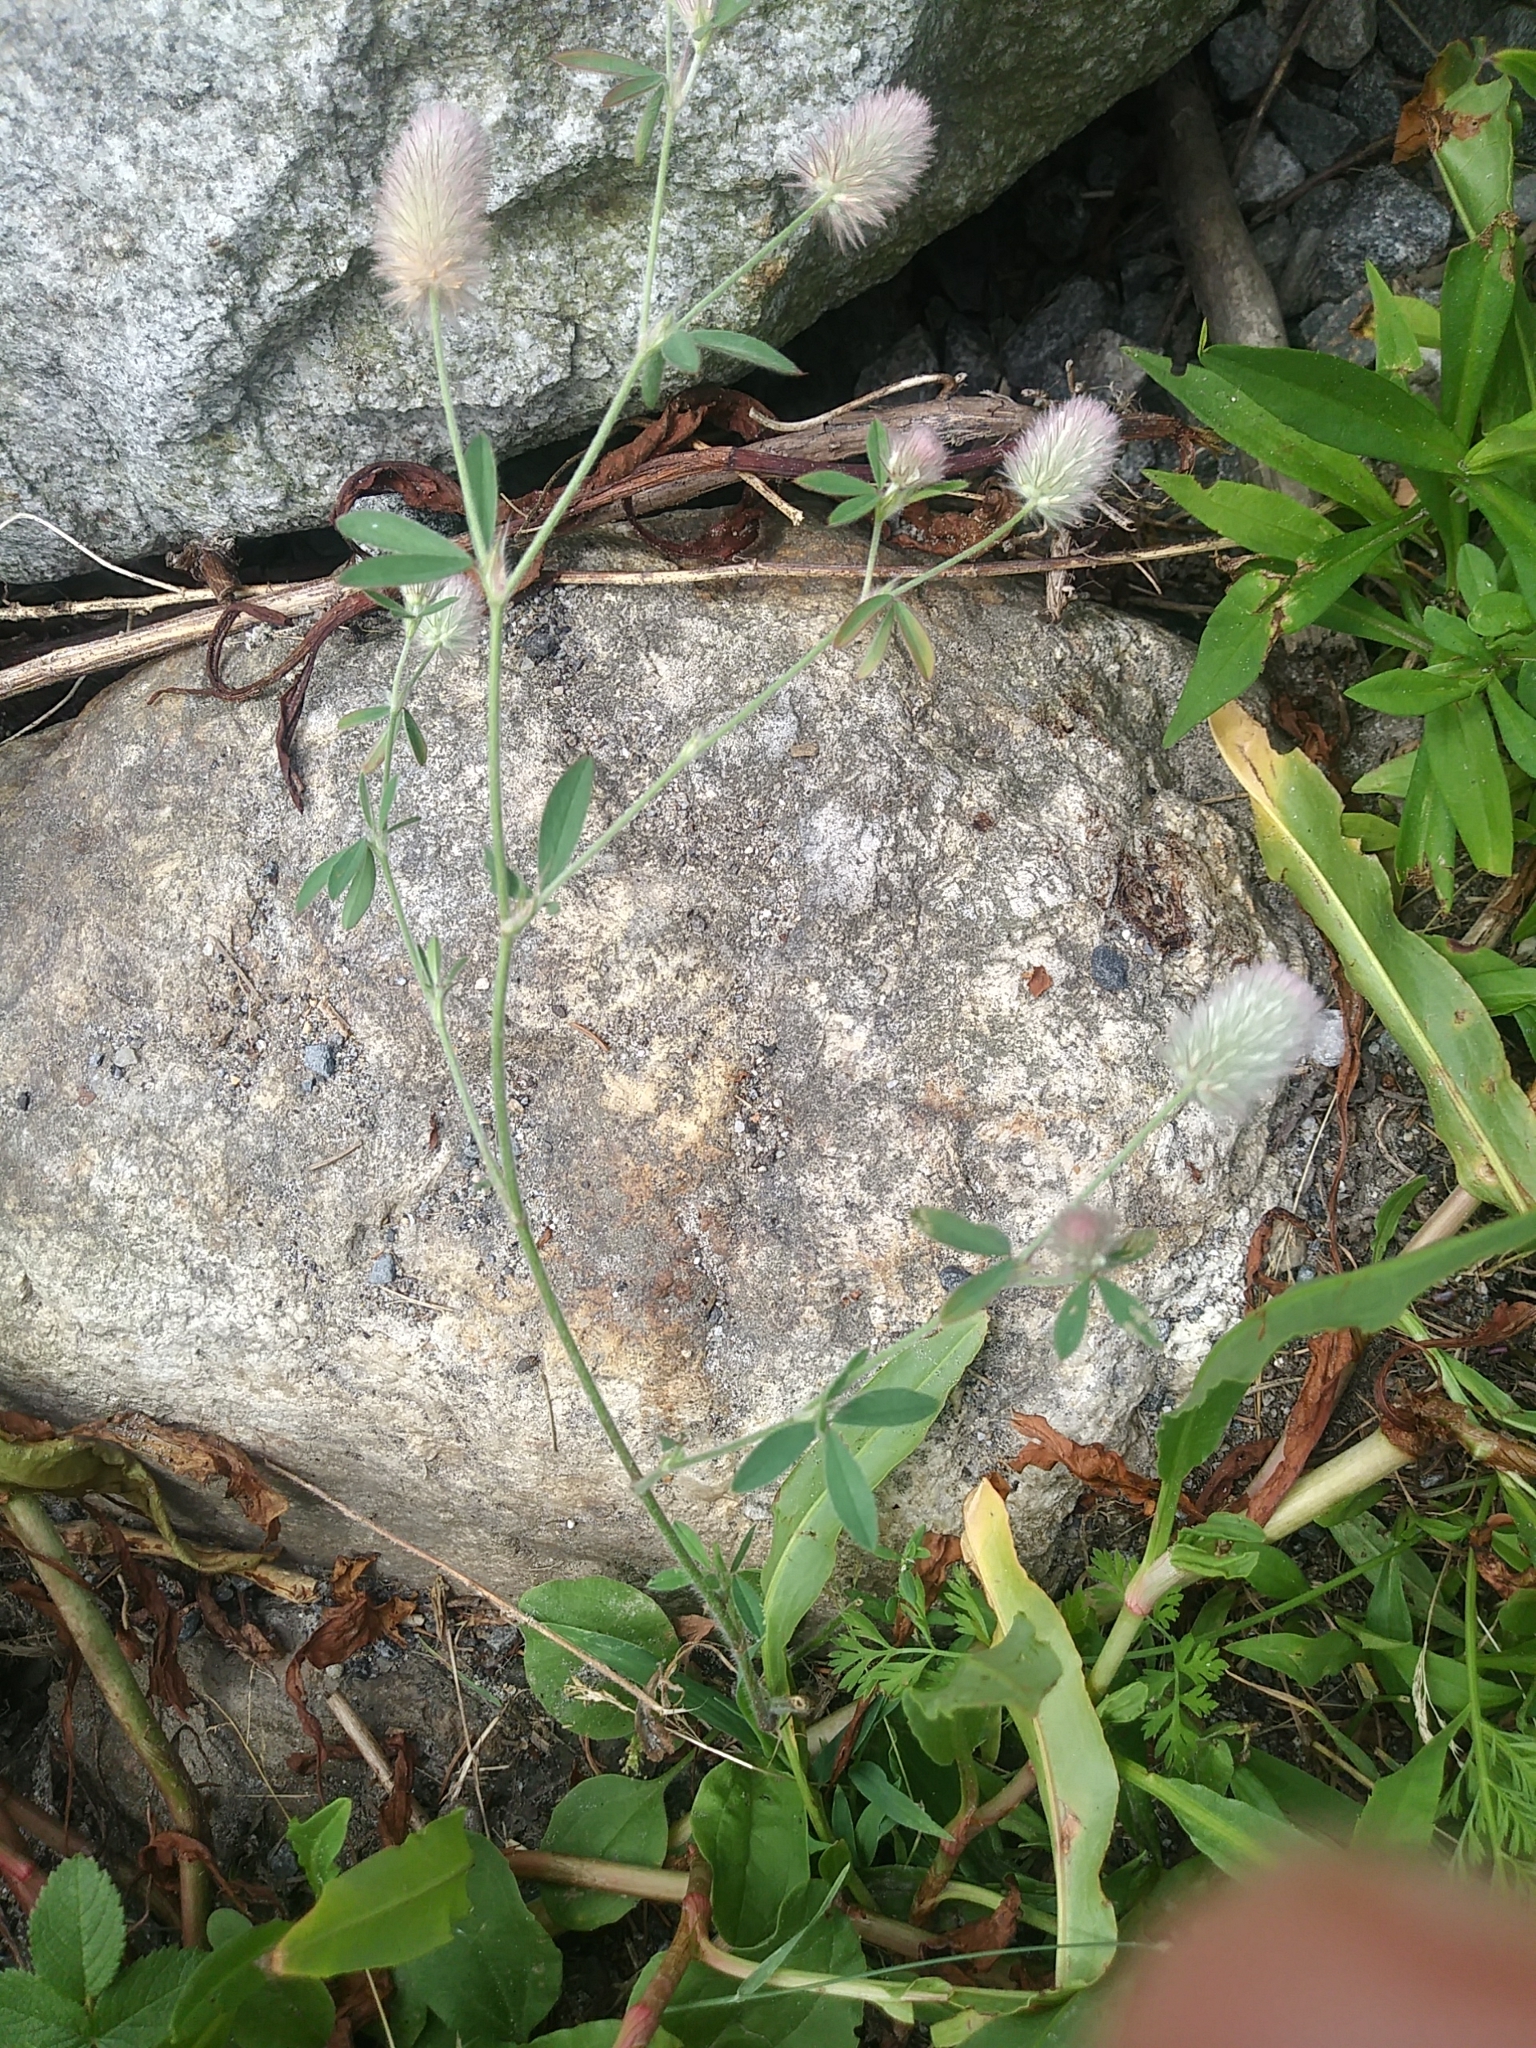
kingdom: Plantae
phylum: Tracheophyta
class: Magnoliopsida
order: Fabales
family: Fabaceae
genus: Trifolium
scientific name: Trifolium arvense
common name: Hare's-foot clover
